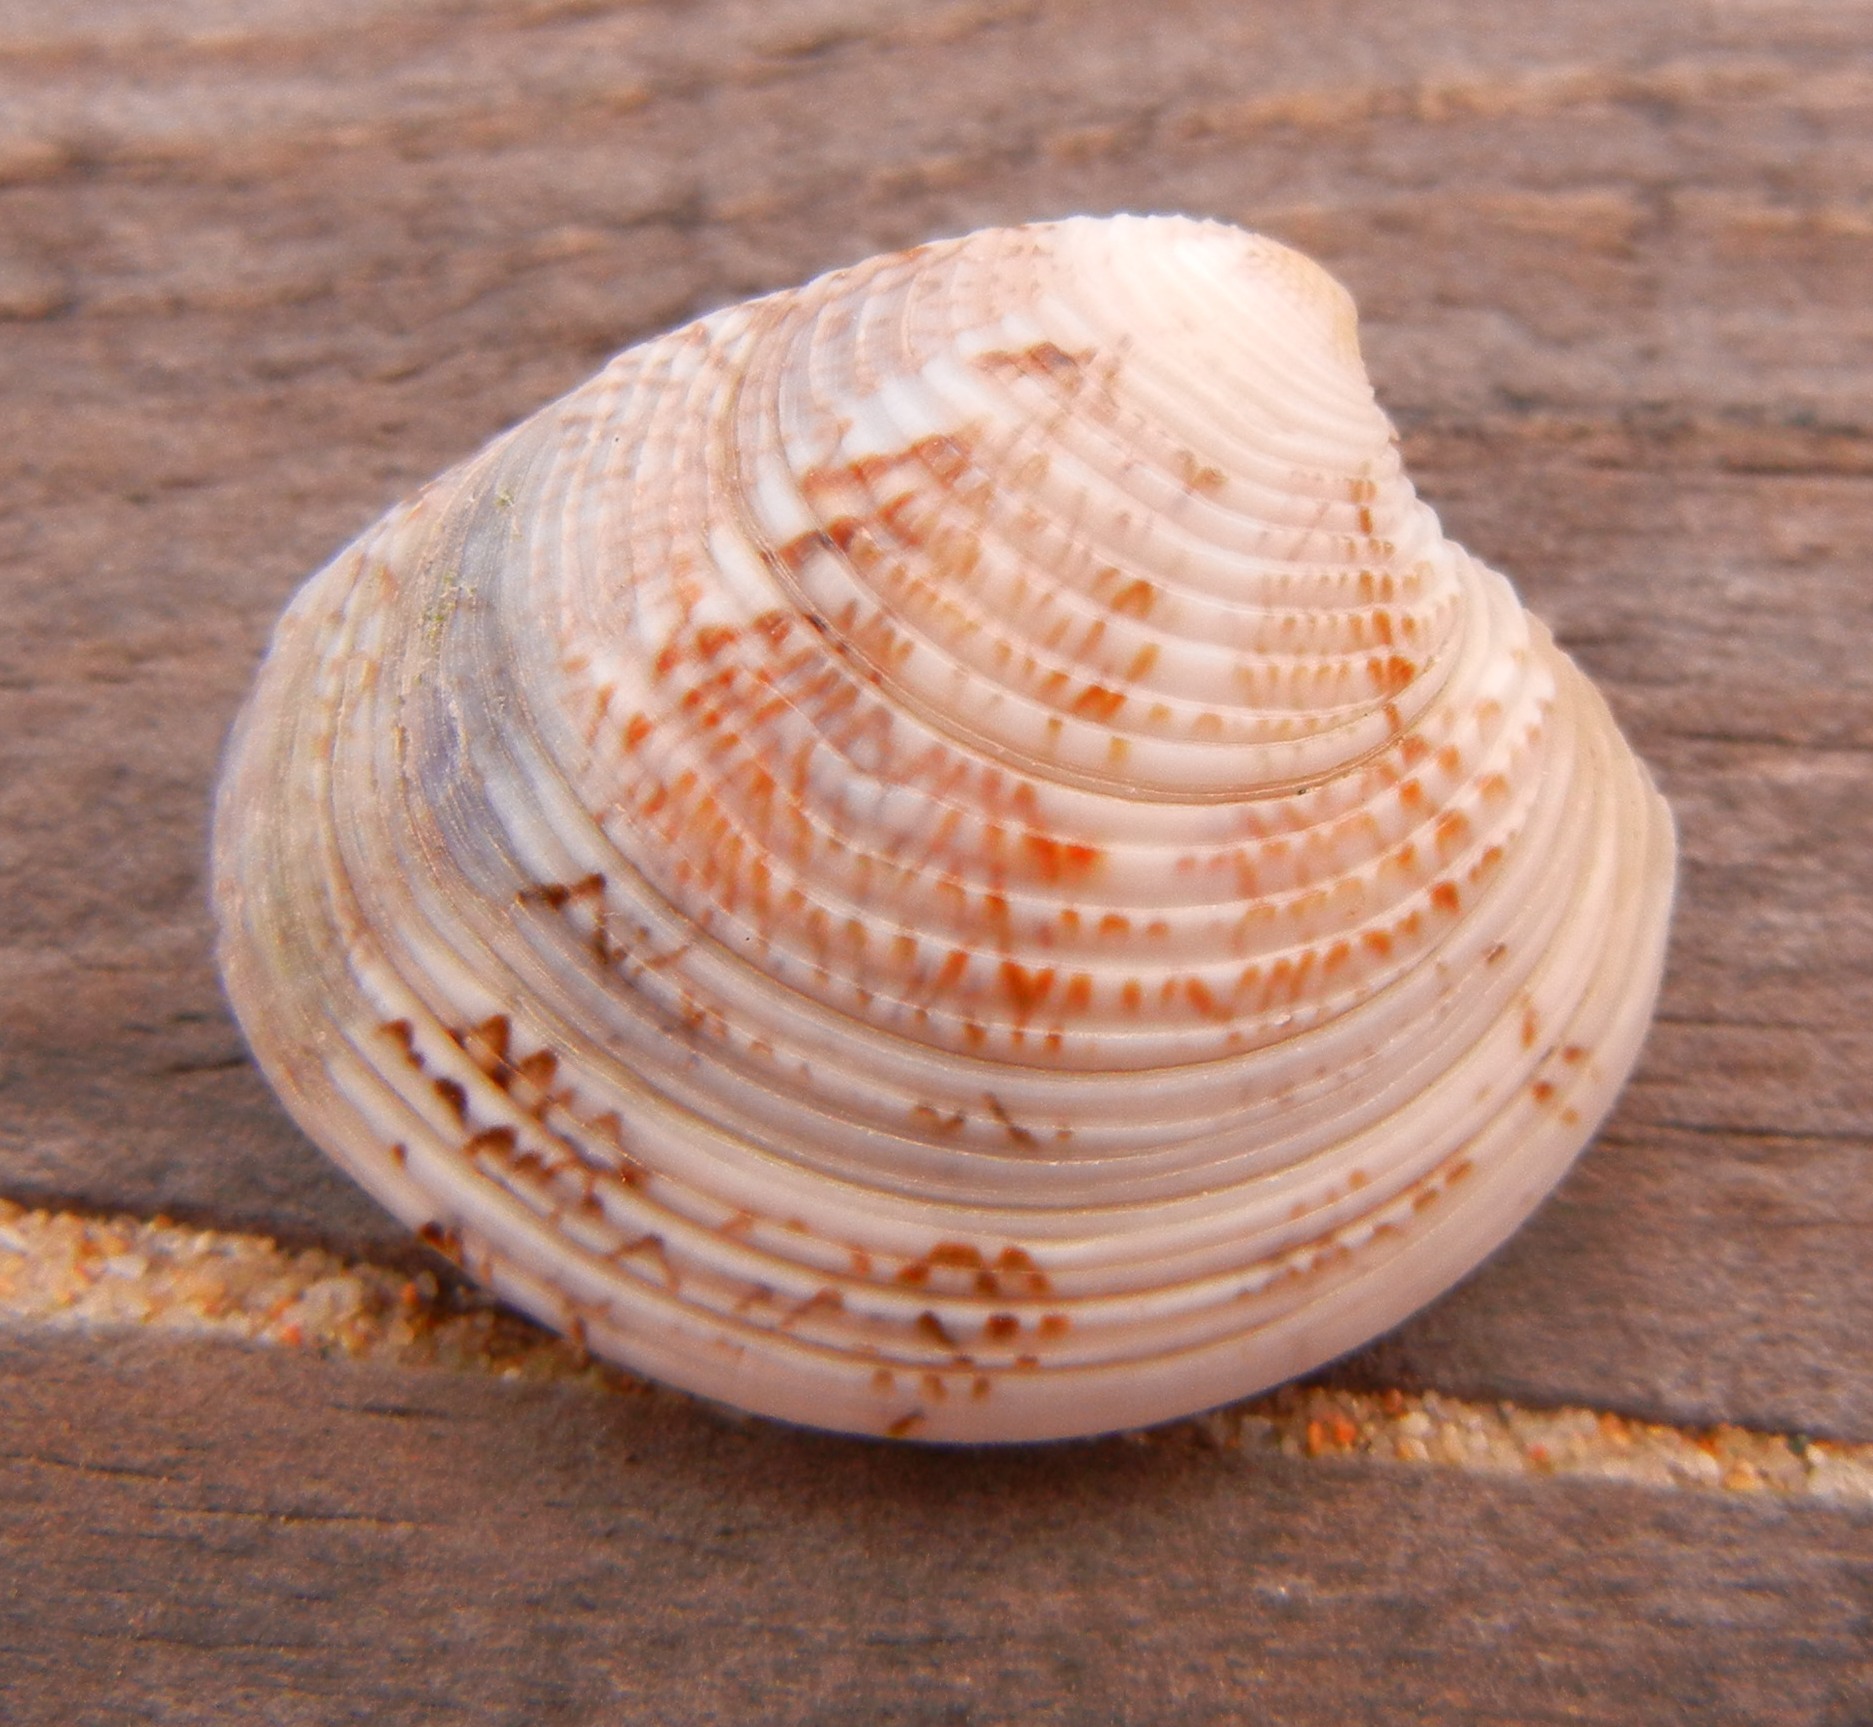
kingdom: Animalia
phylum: Mollusca
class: Bivalvia
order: Venerida
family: Veneridae
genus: Chamelea
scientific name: Chamelea gallina
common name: Chicken venus
